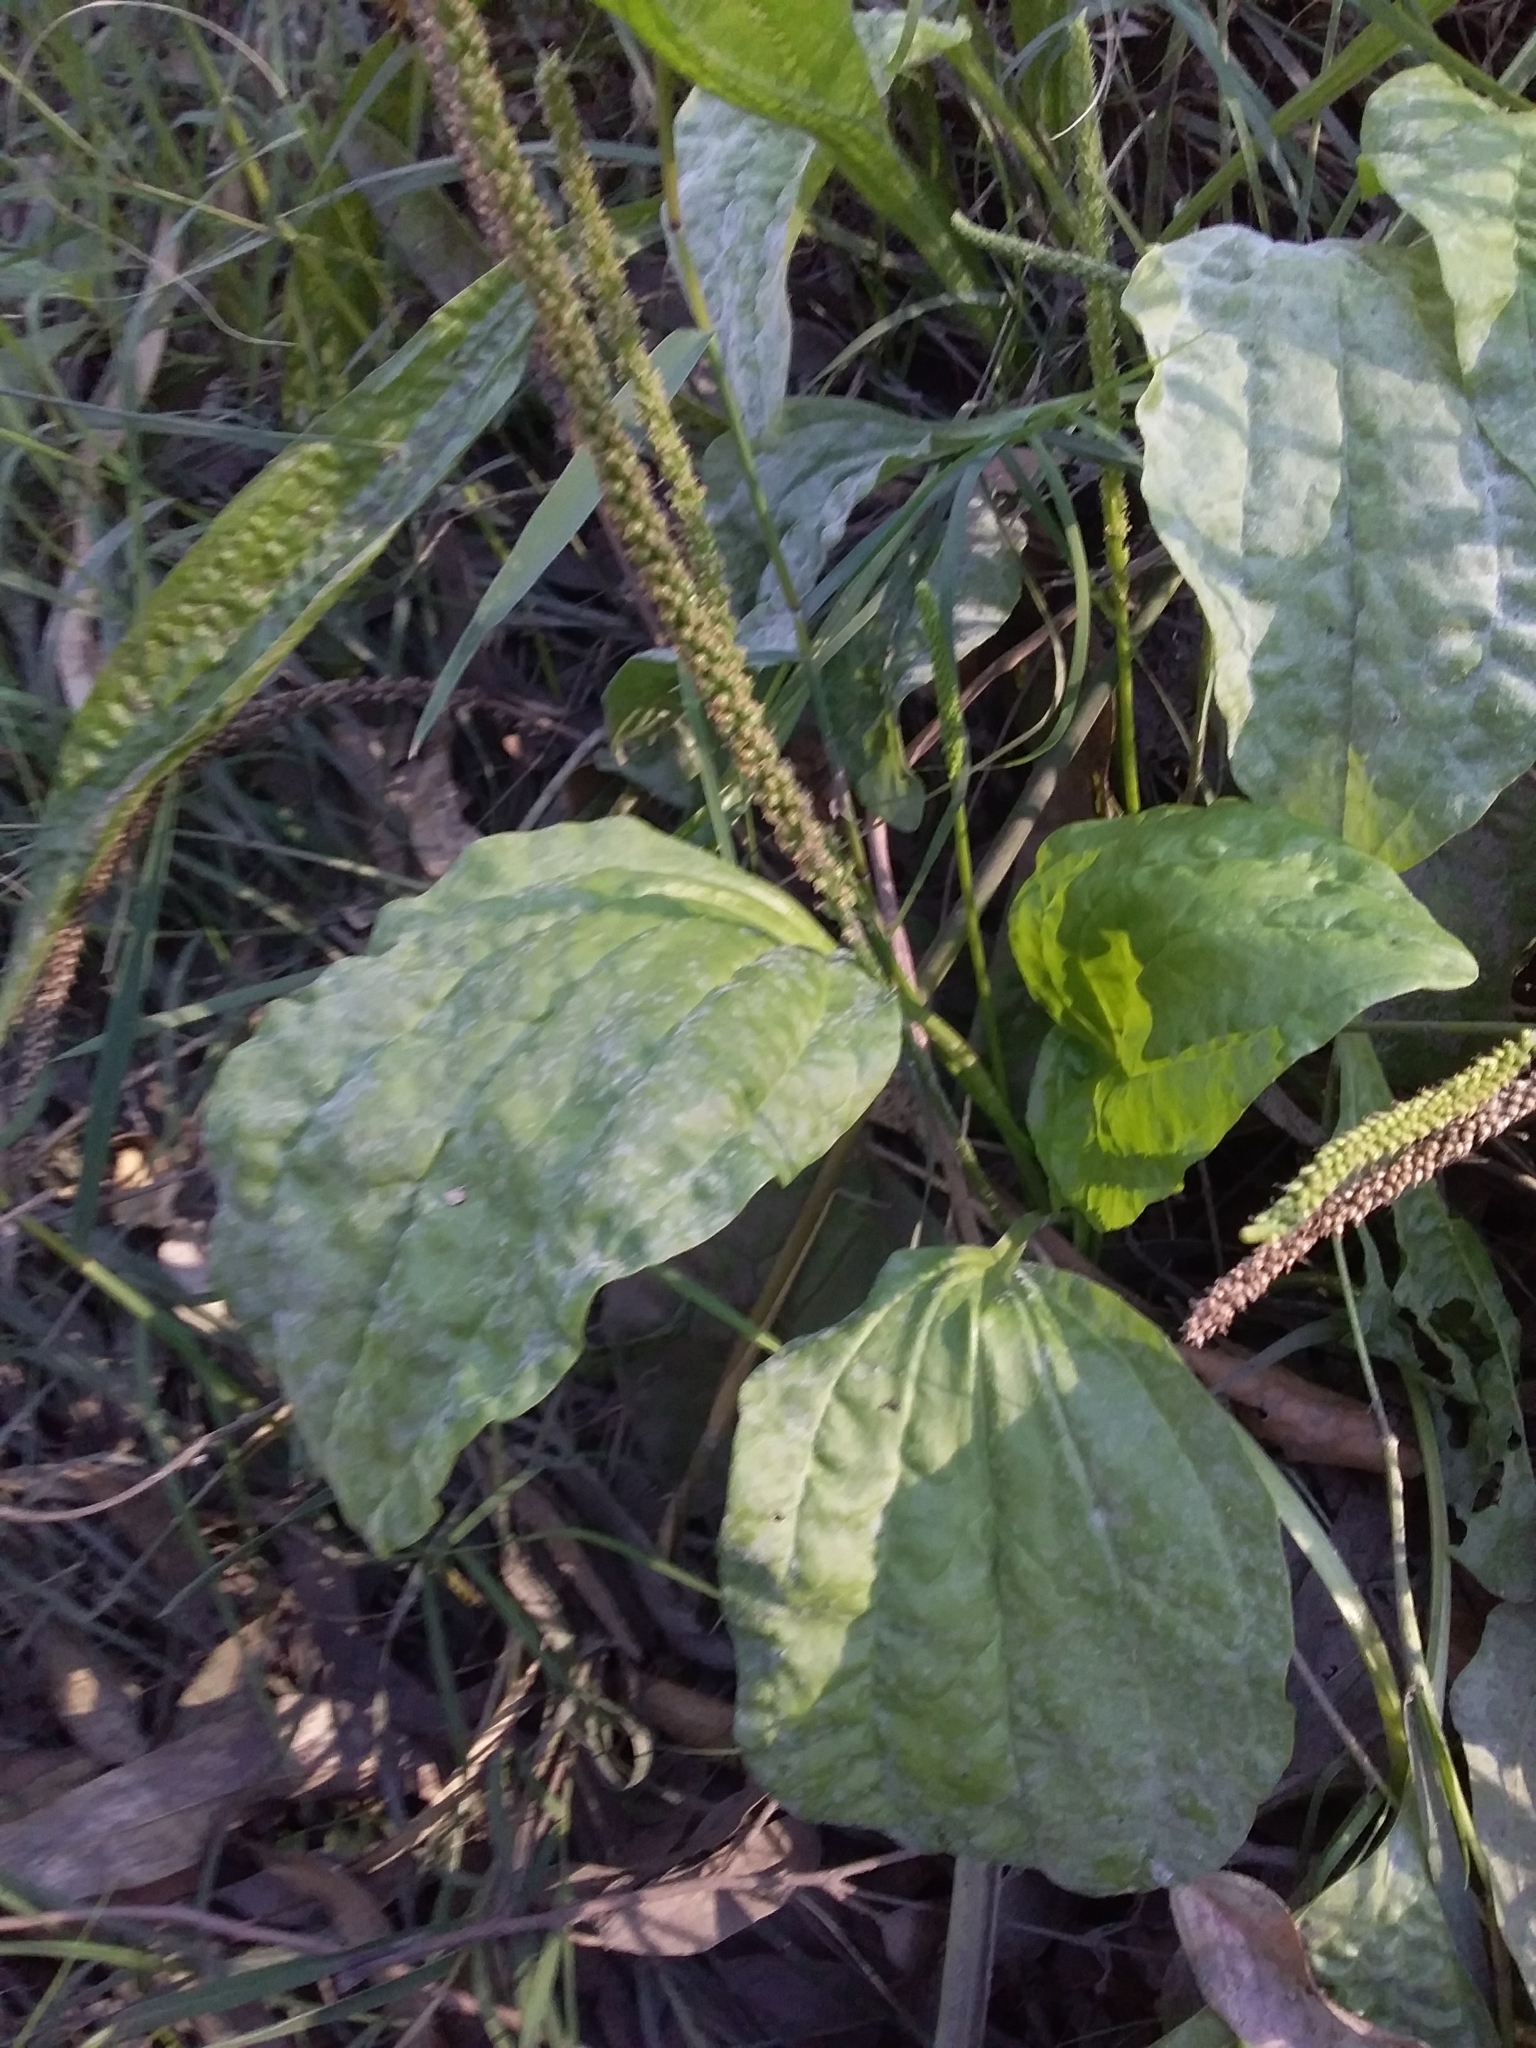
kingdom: Plantae
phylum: Tracheophyta
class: Magnoliopsida
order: Lamiales
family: Plantaginaceae
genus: Plantago
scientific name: Plantago major
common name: Common plantain
